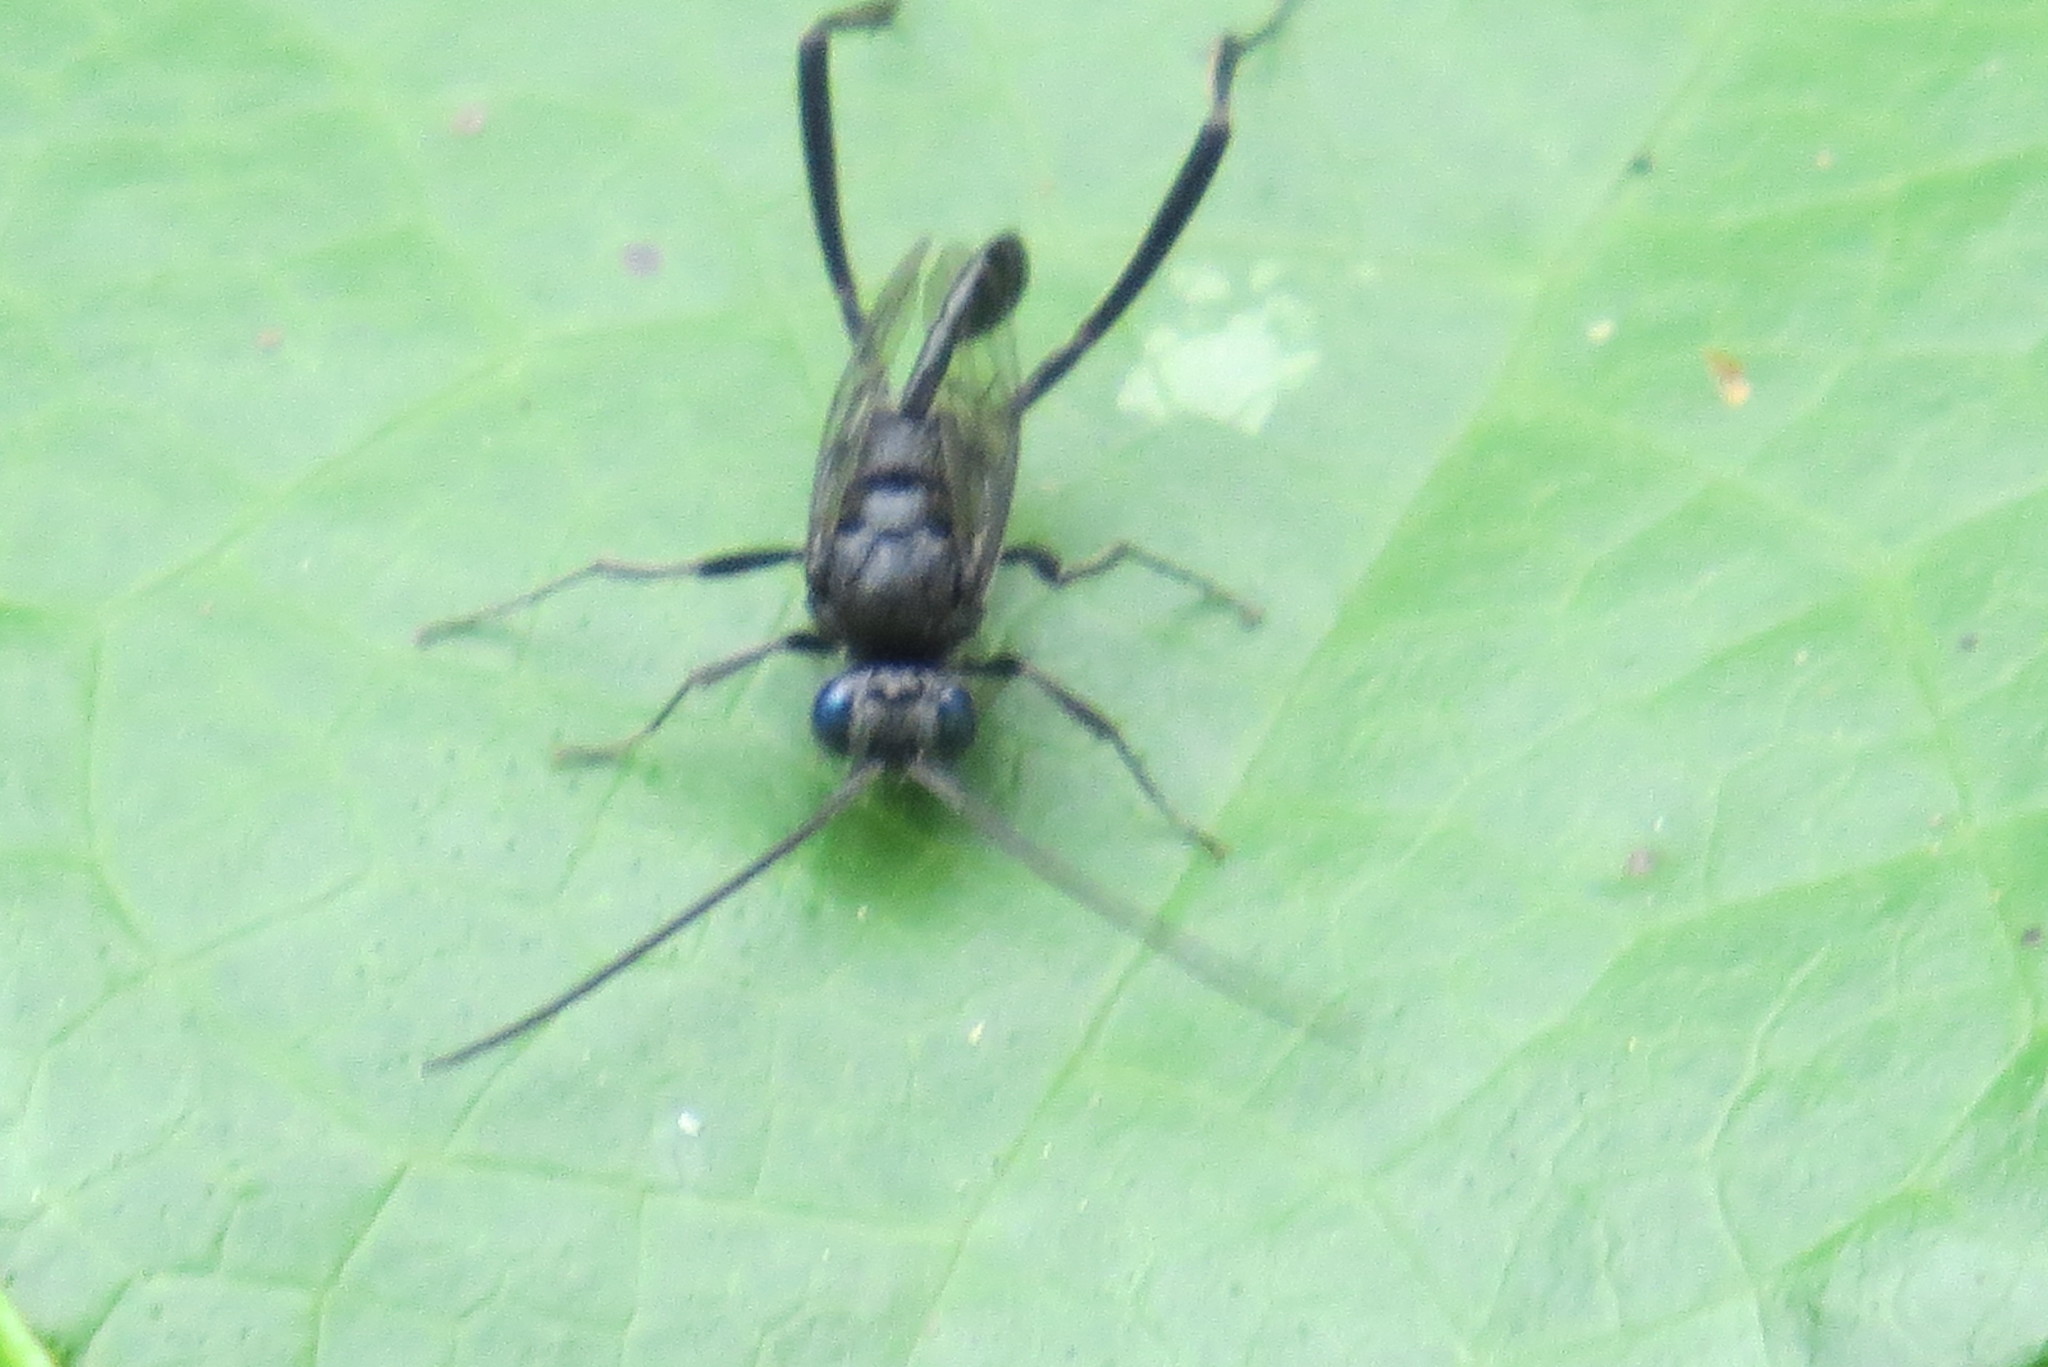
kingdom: Animalia
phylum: Arthropoda
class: Insecta
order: Hymenoptera
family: Evaniidae
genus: Evania
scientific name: Evania appendigaster
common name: Ensign wasp
